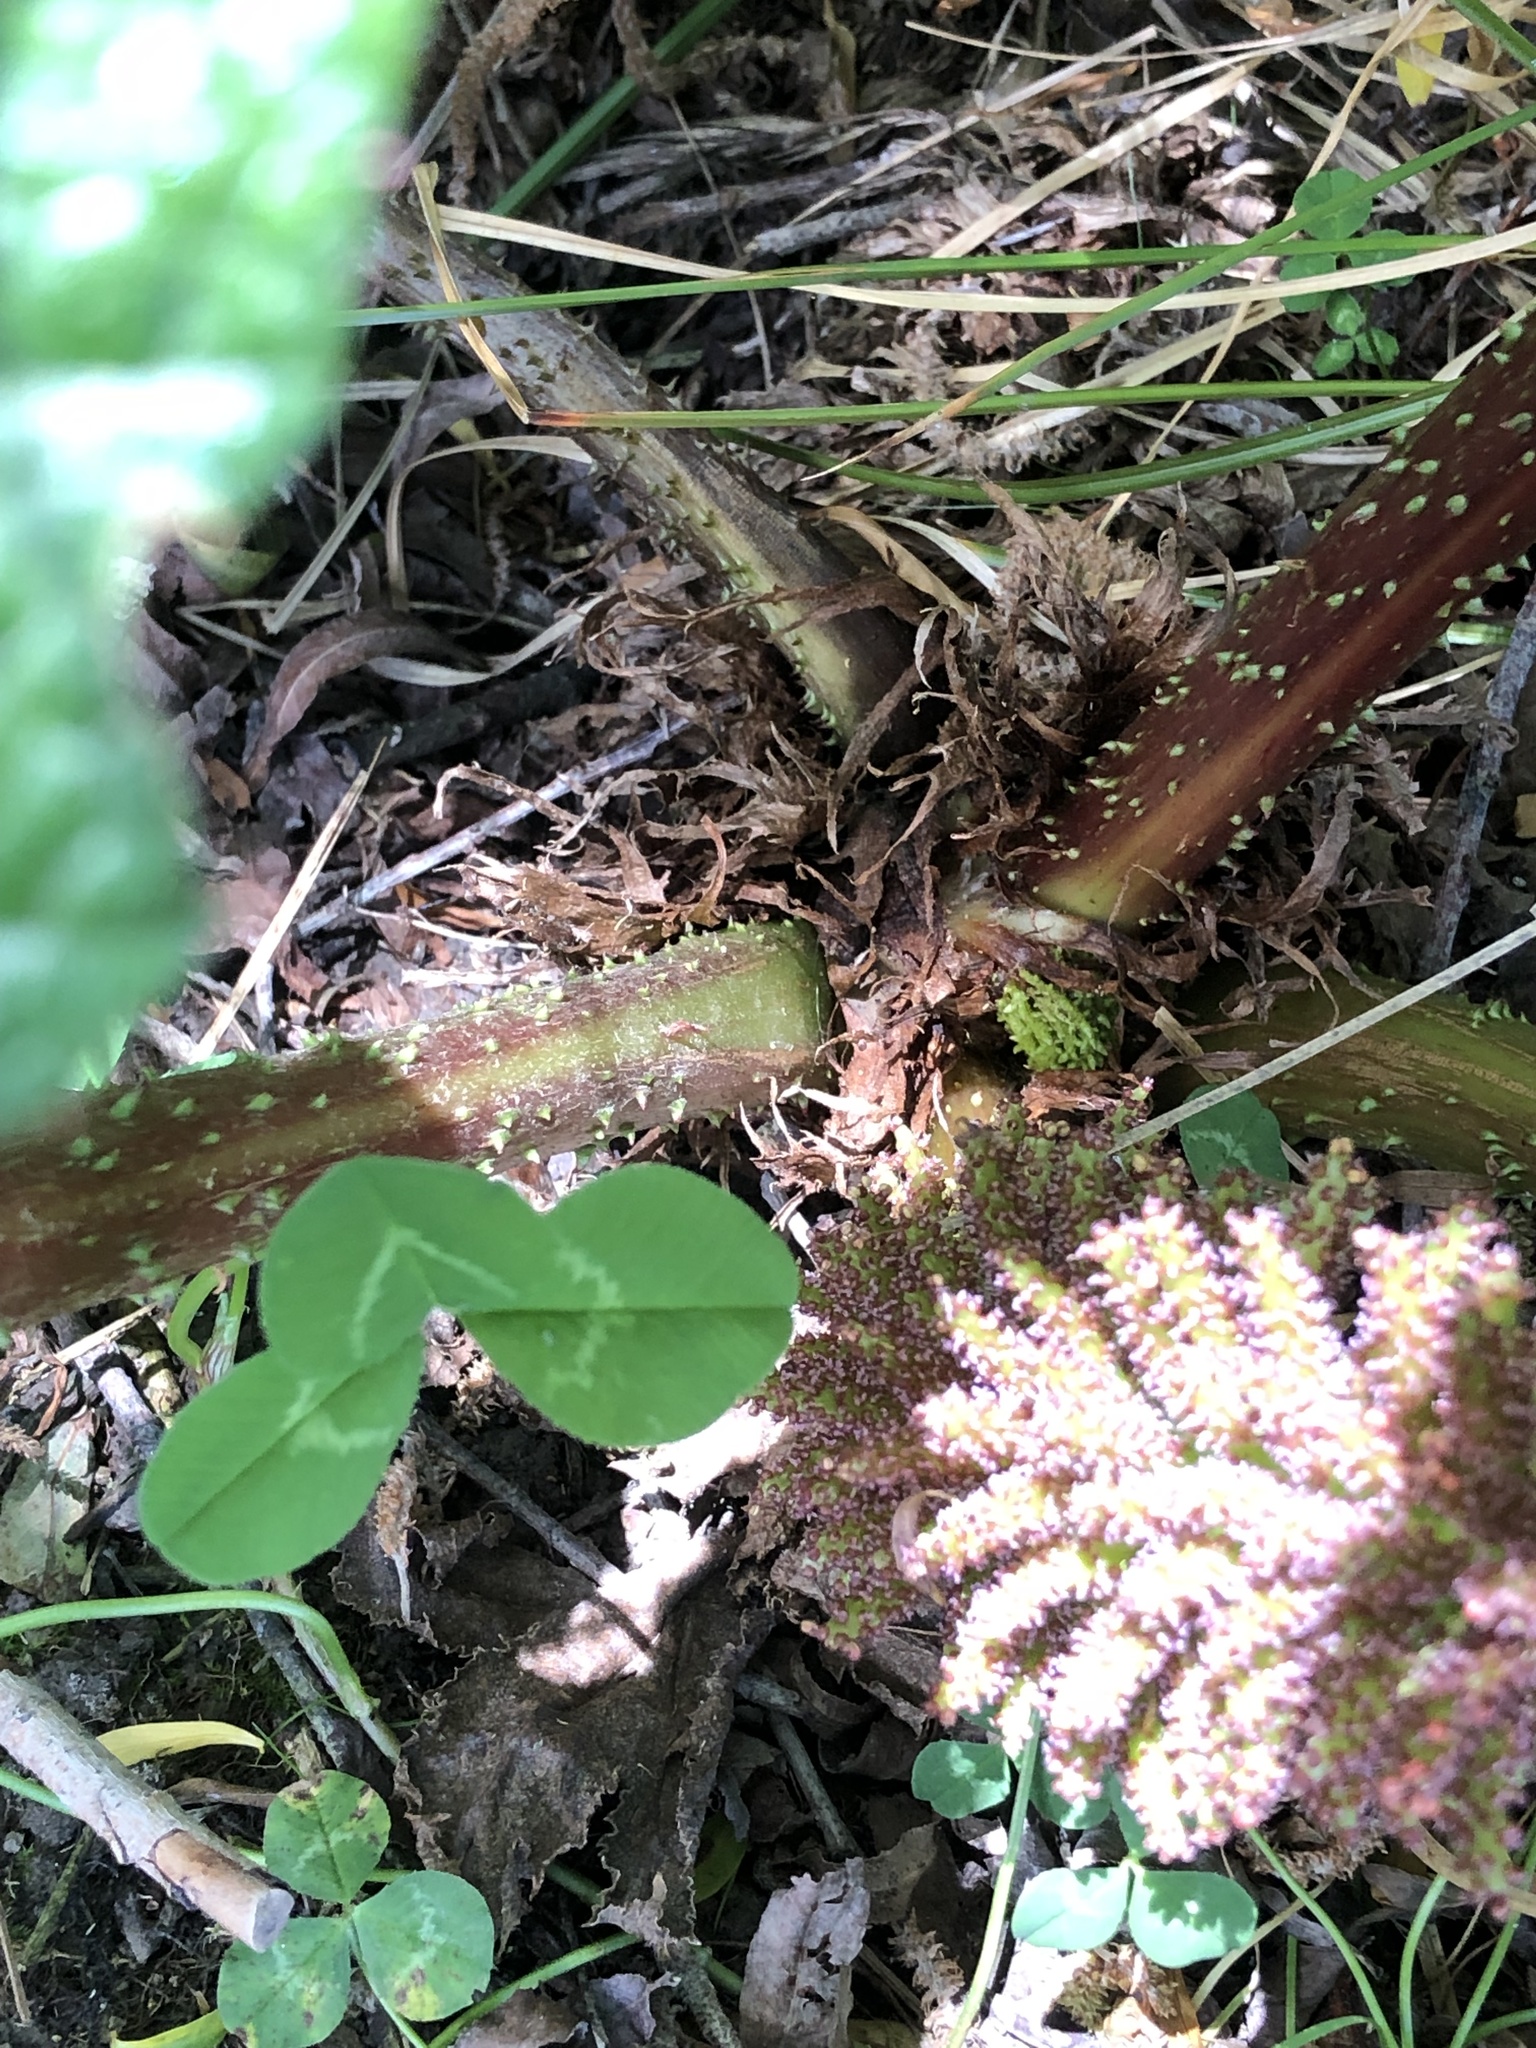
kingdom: Plantae
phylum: Tracheophyta
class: Magnoliopsida
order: Gunnerales
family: Gunneraceae
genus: Gunnera
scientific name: Gunnera tinctoria
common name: Giant-rhubarb
